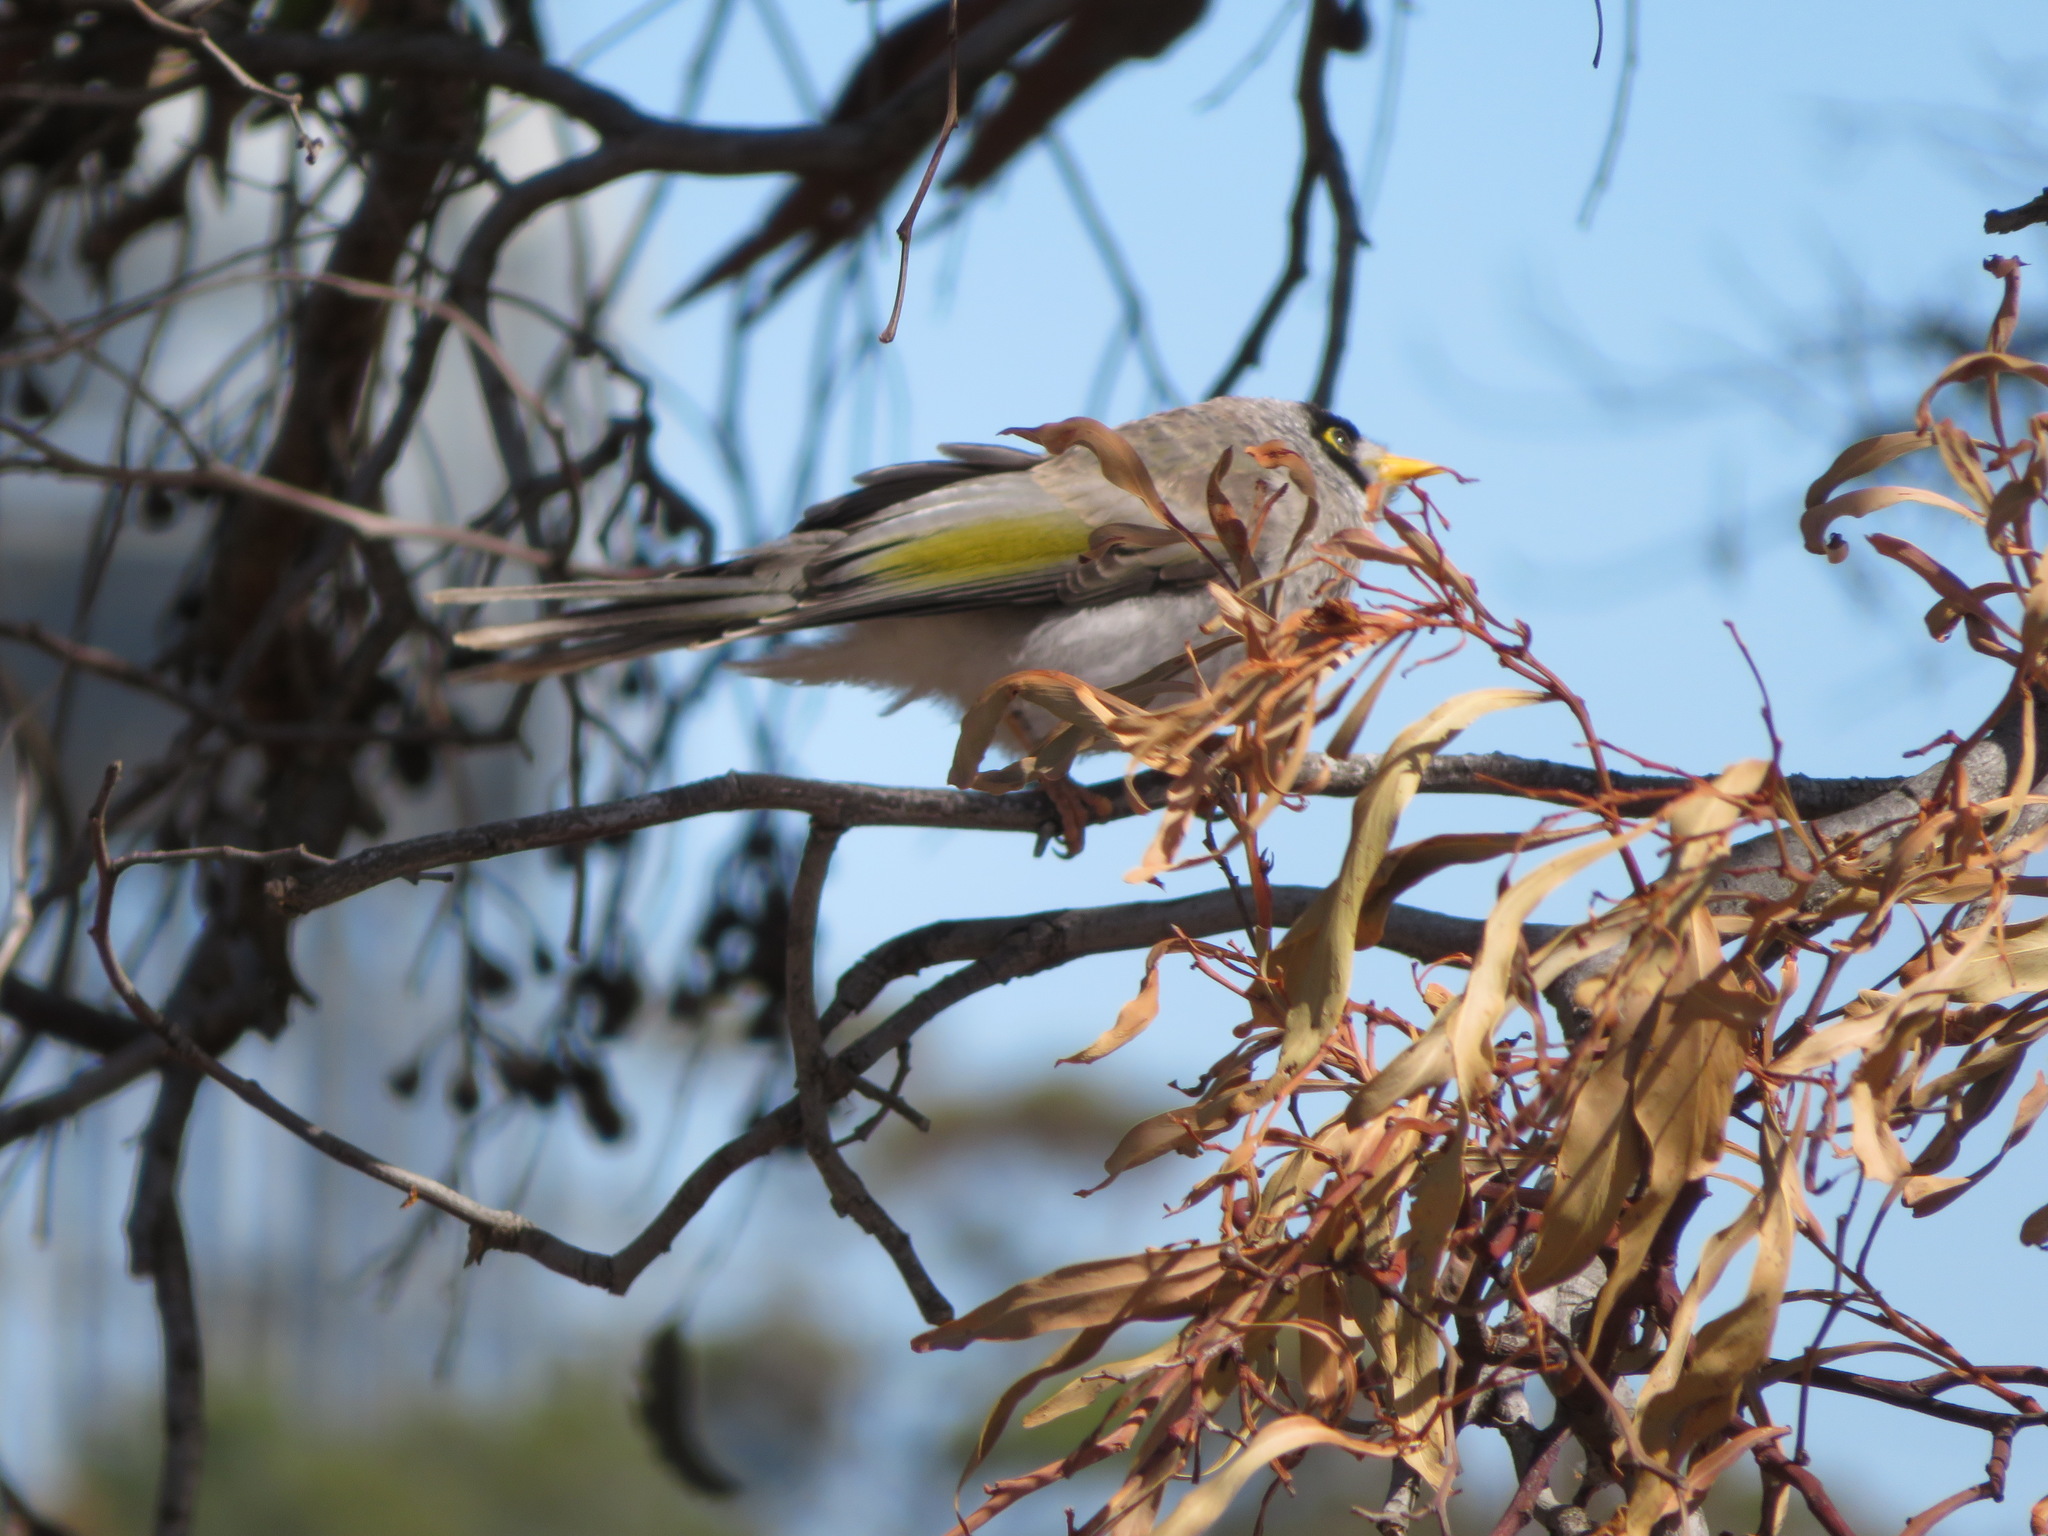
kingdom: Animalia
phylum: Chordata
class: Aves
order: Passeriformes
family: Meliphagidae
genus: Manorina
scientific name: Manorina melanocephala
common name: Noisy miner
